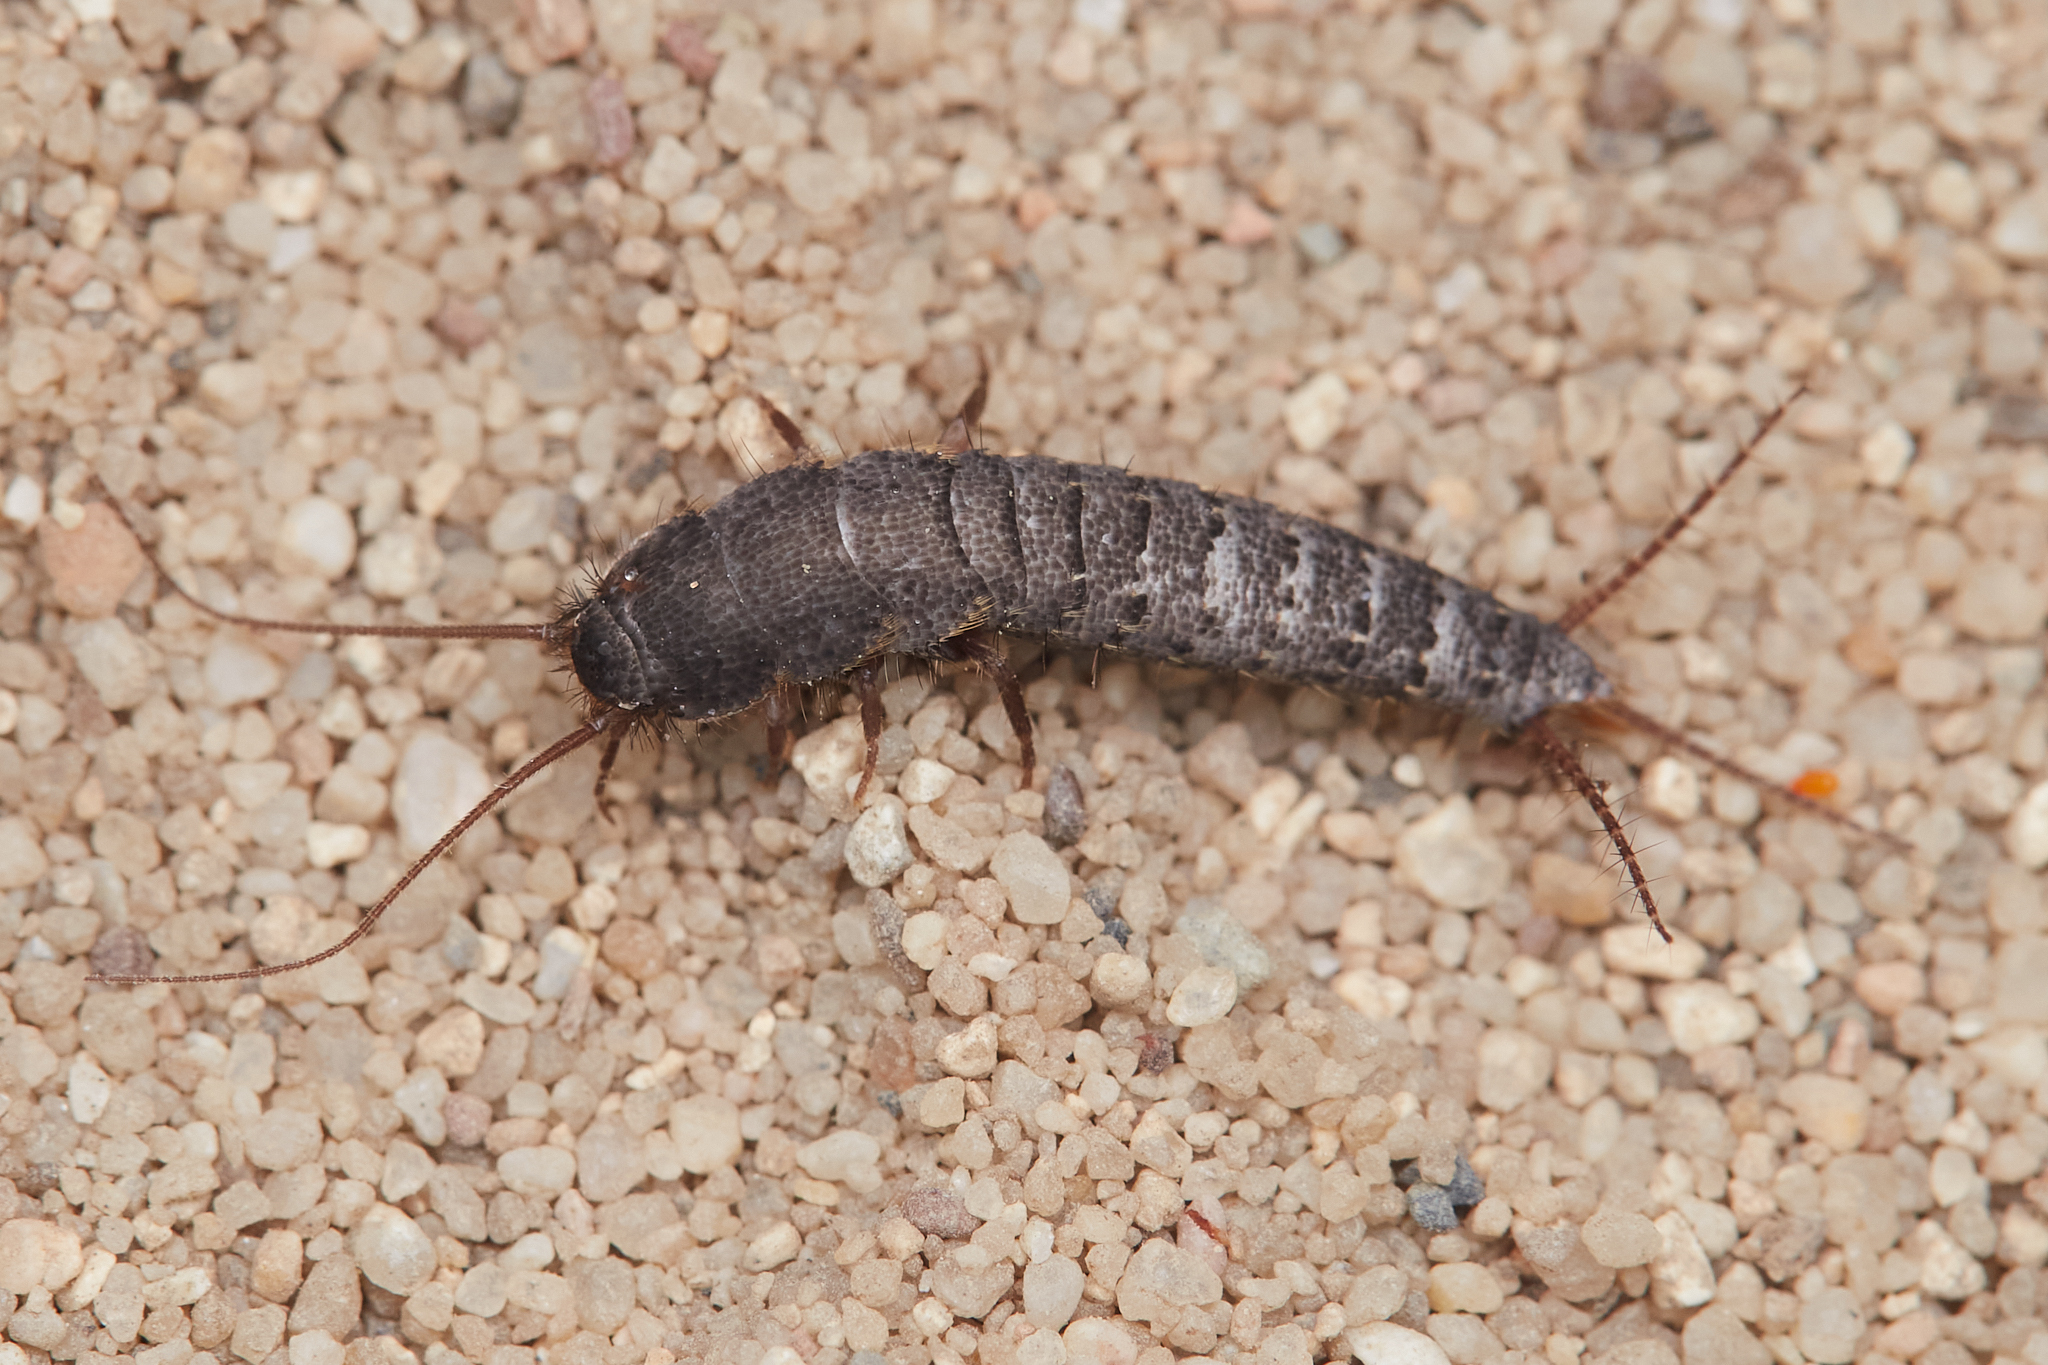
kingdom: Animalia
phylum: Arthropoda
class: Insecta
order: Zygentoma
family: Lepismatidae
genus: Allacrotelsa
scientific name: Allacrotelsa spinulata
